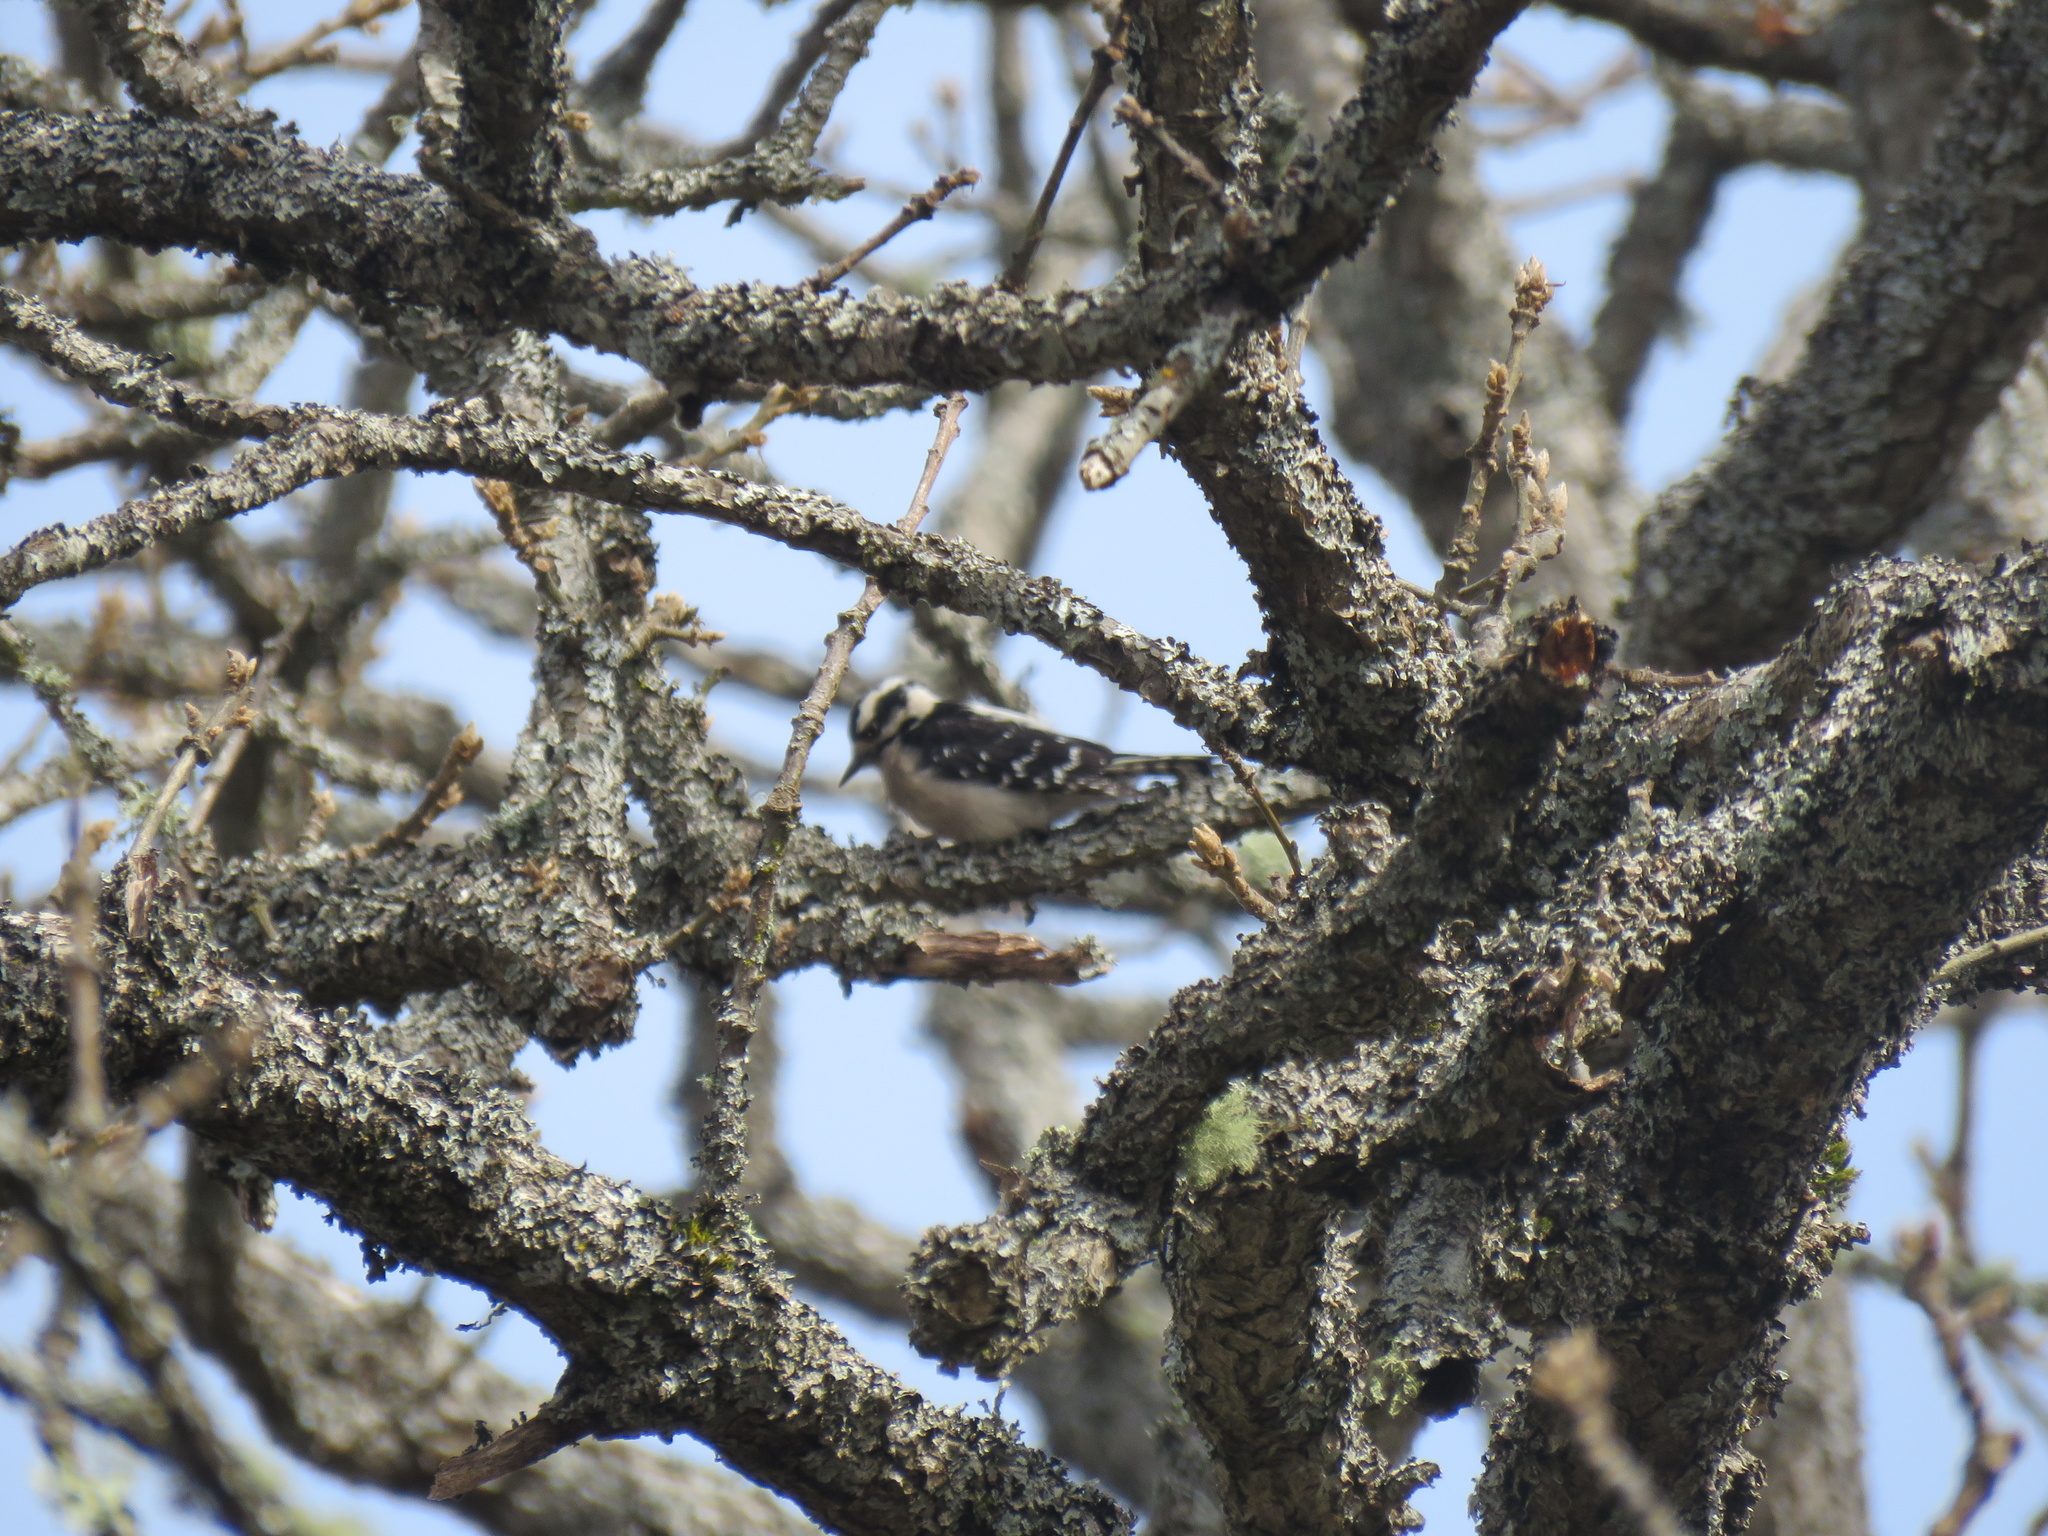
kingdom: Animalia
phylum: Chordata
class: Aves
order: Piciformes
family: Picidae
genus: Dryobates
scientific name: Dryobates pubescens
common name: Downy woodpecker
